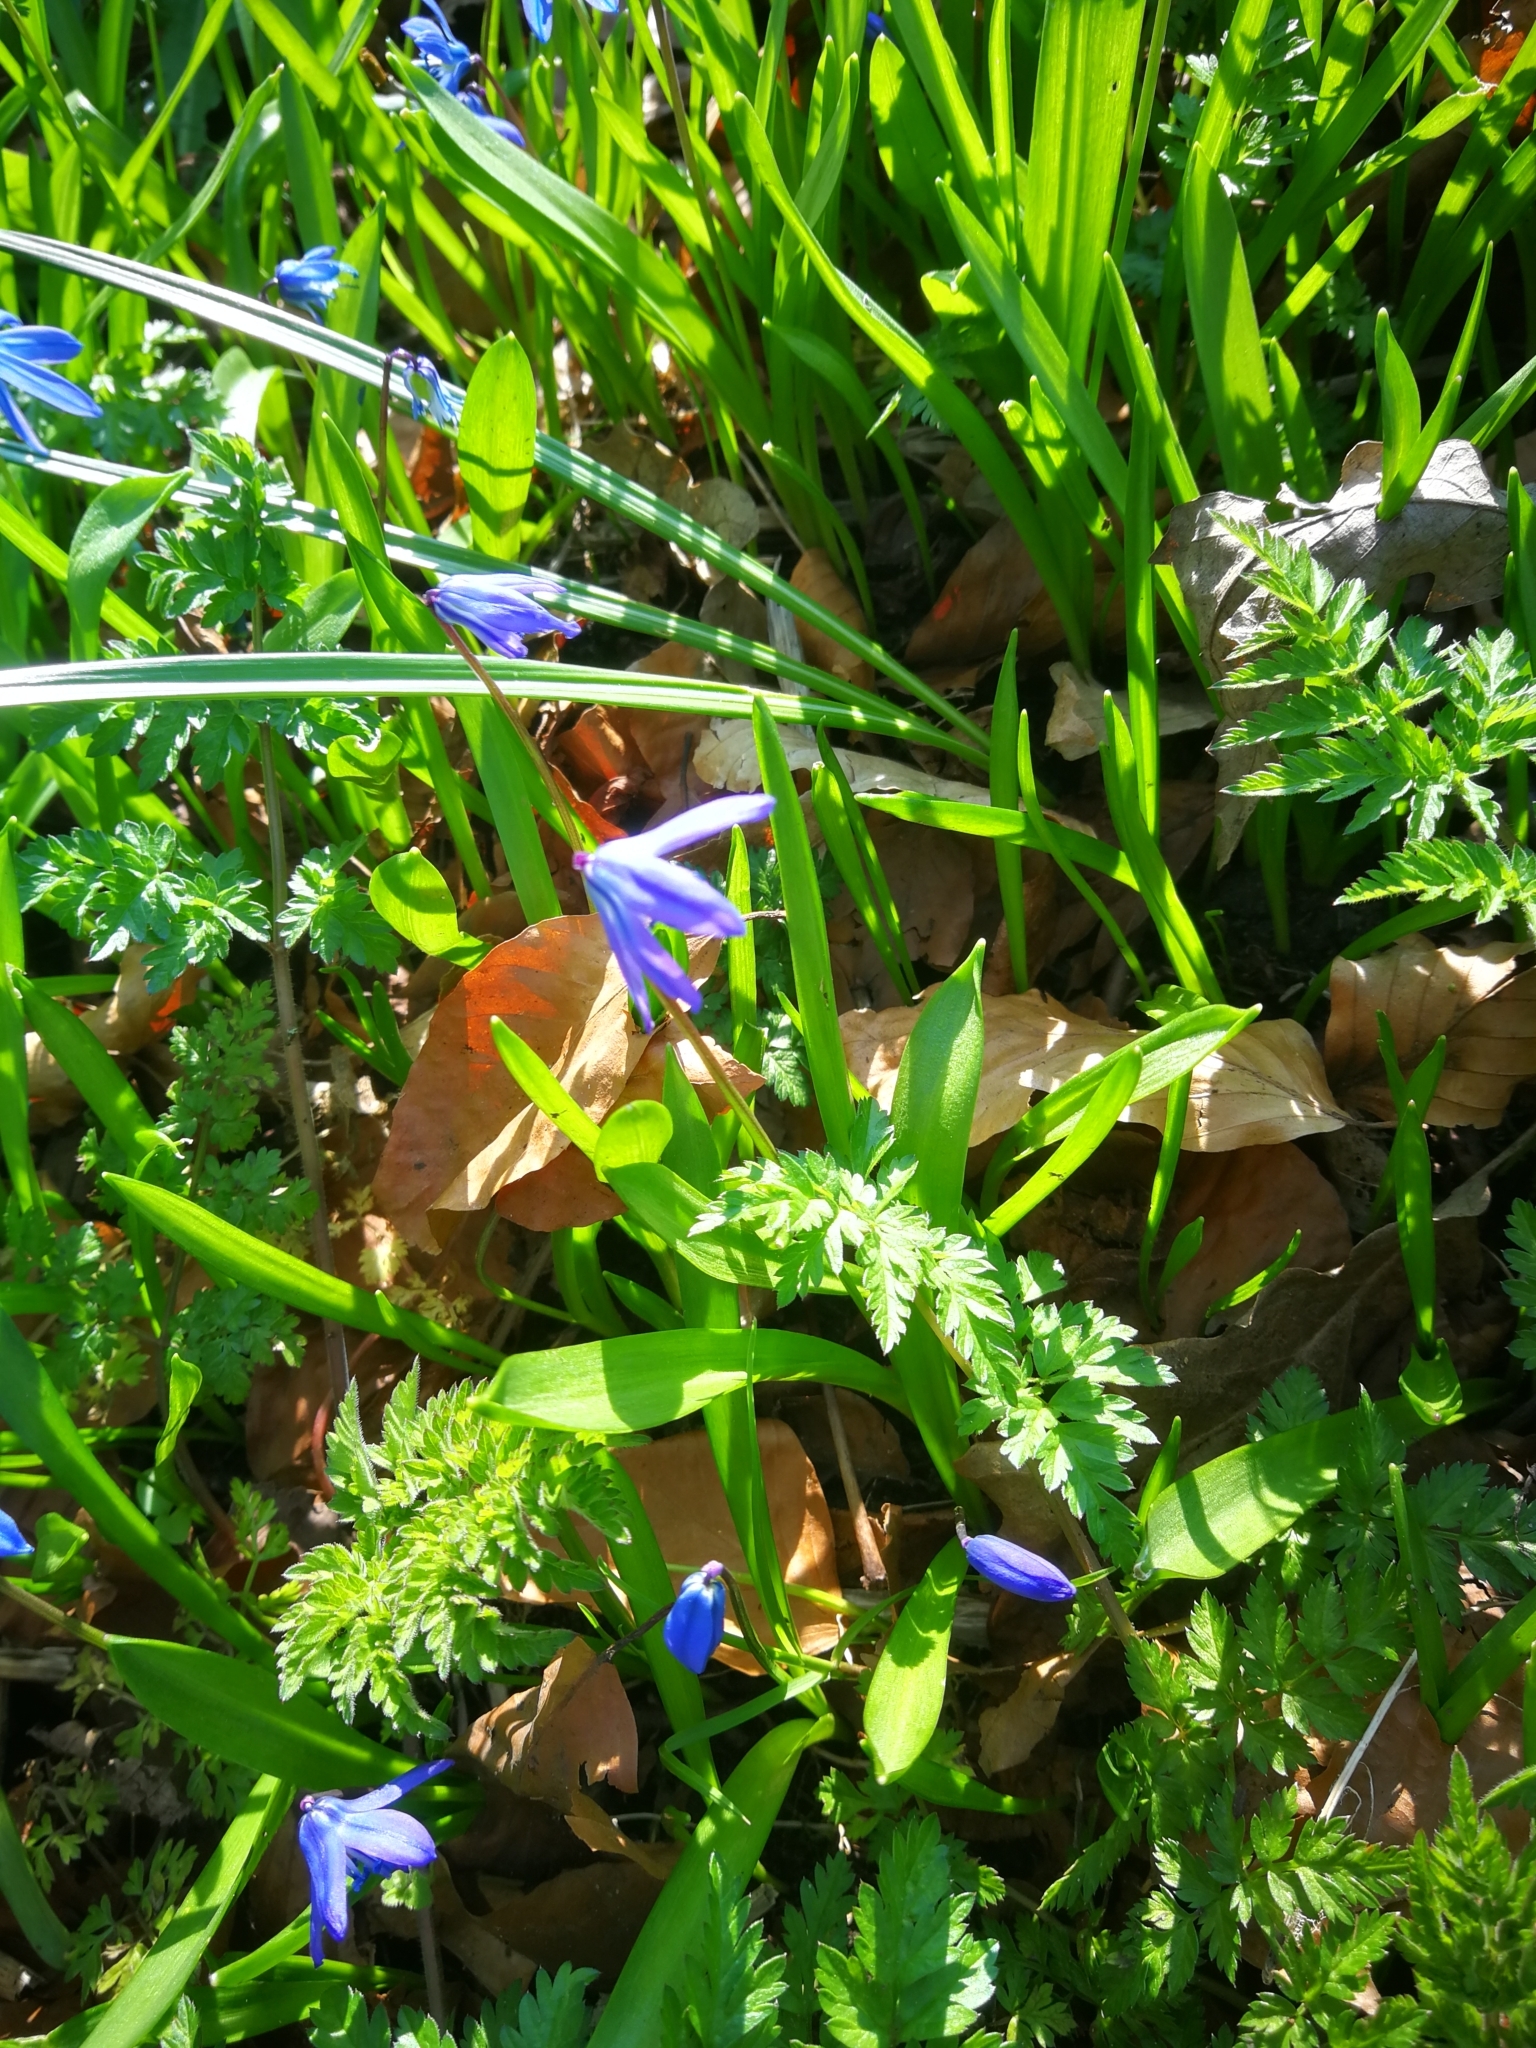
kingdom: Plantae
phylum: Tracheophyta
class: Liliopsida
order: Asparagales
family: Asparagaceae
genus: Scilla
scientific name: Scilla siberica
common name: Siberian squill
